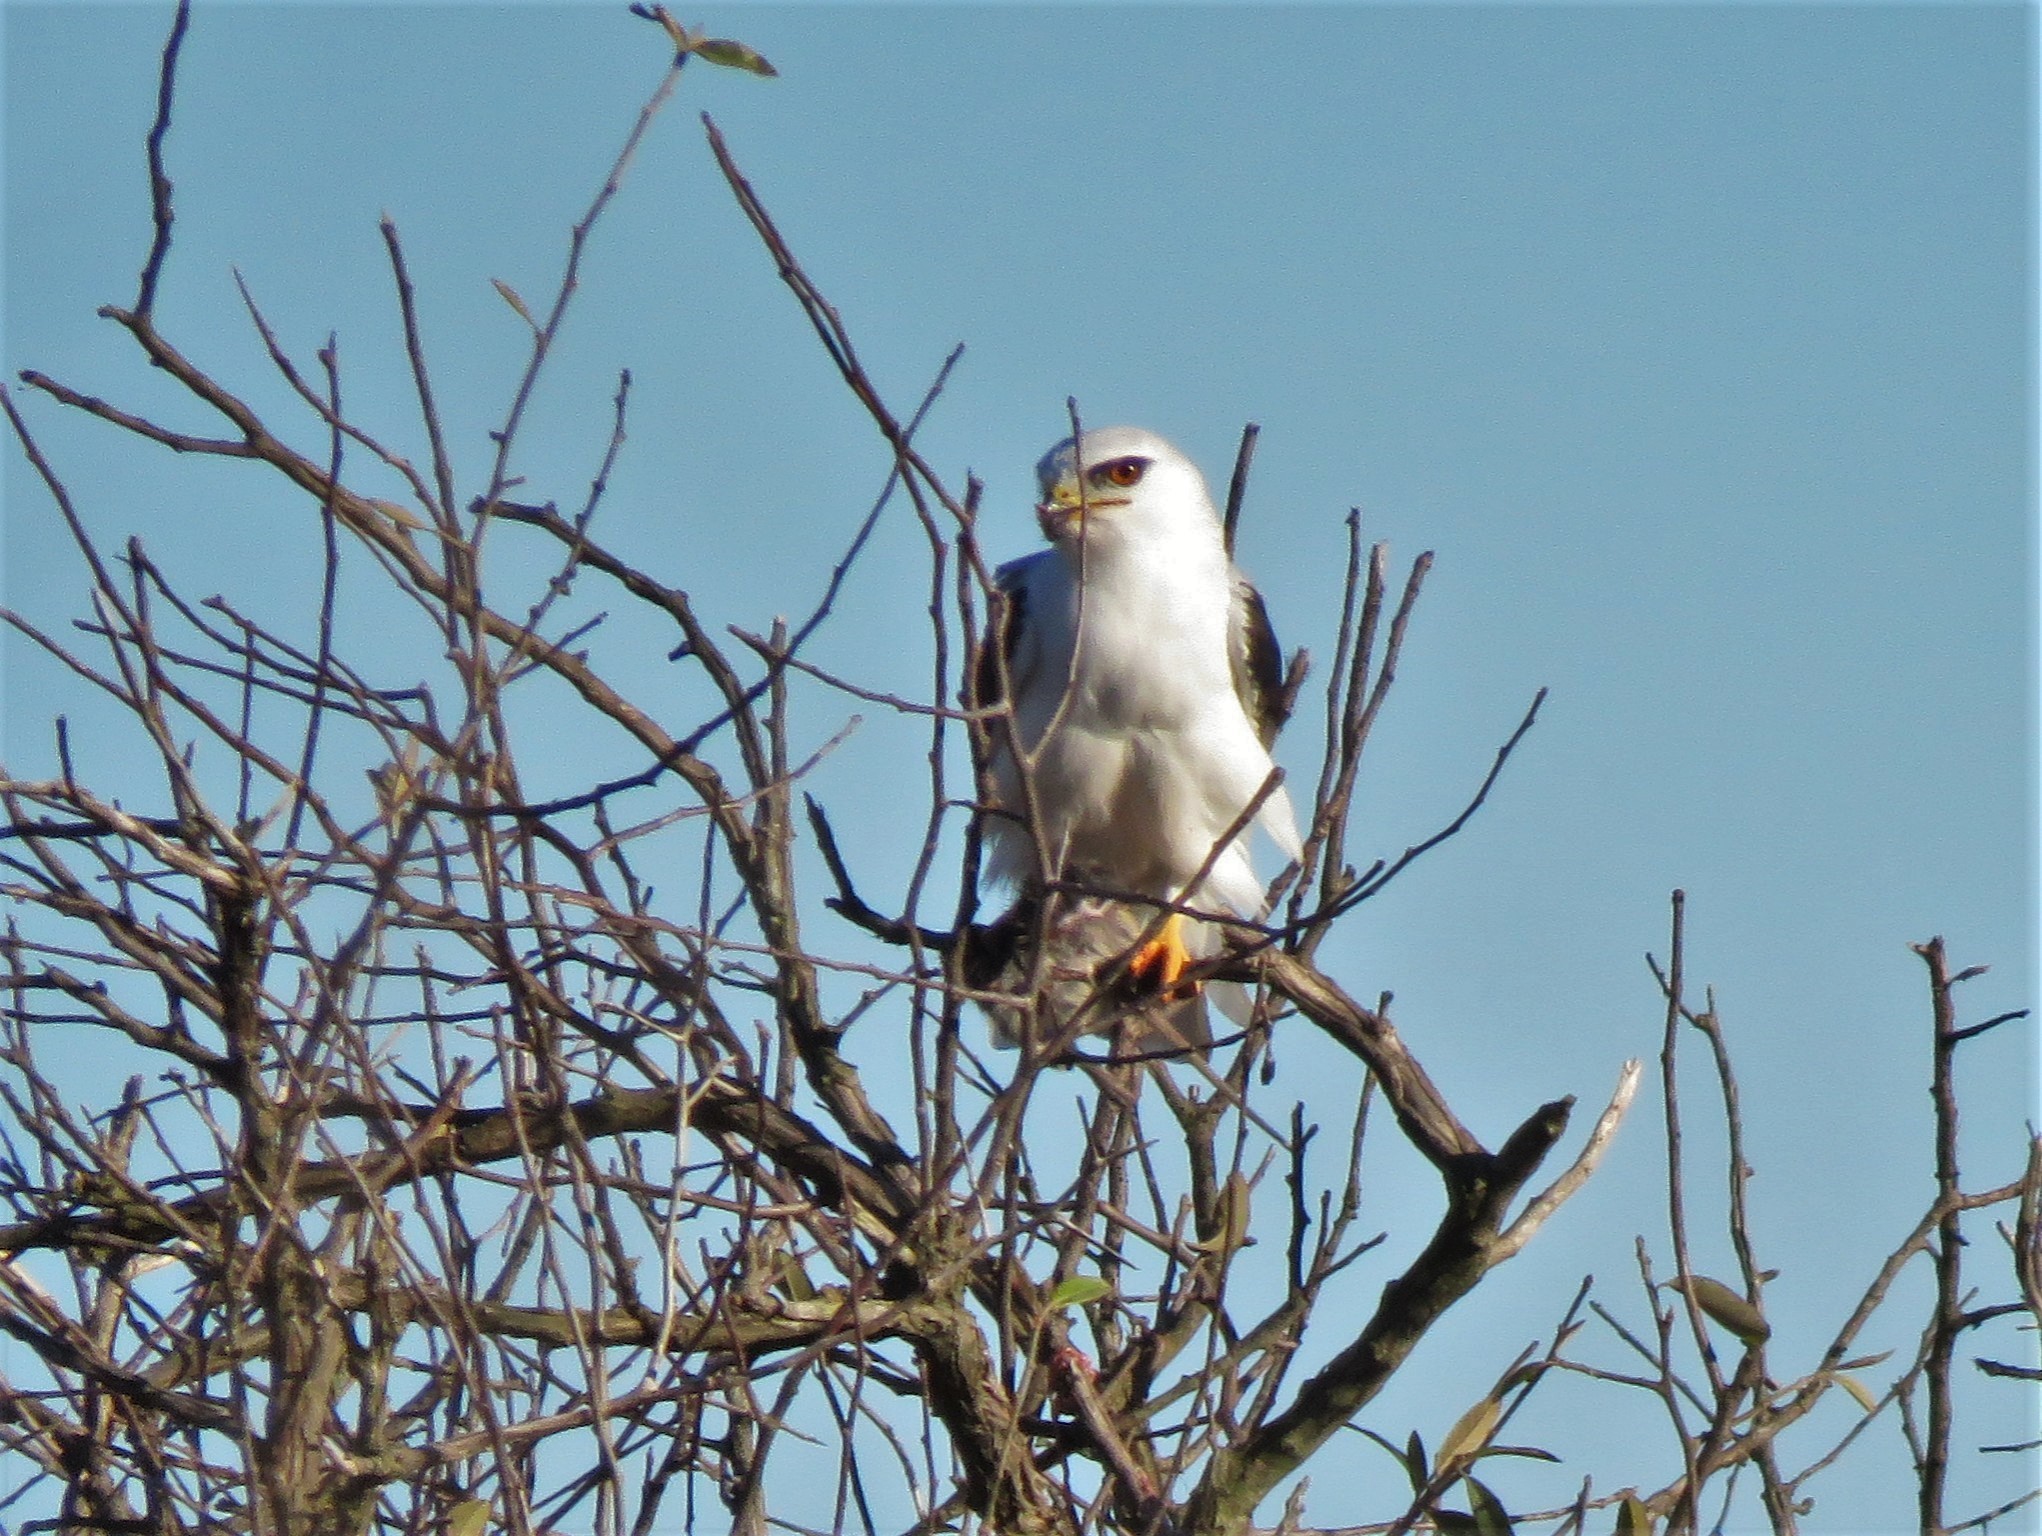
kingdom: Animalia
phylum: Chordata
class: Aves
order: Accipitriformes
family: Accipitridae
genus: Elanus
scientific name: Elanus leucurus
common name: White-tailed kite
